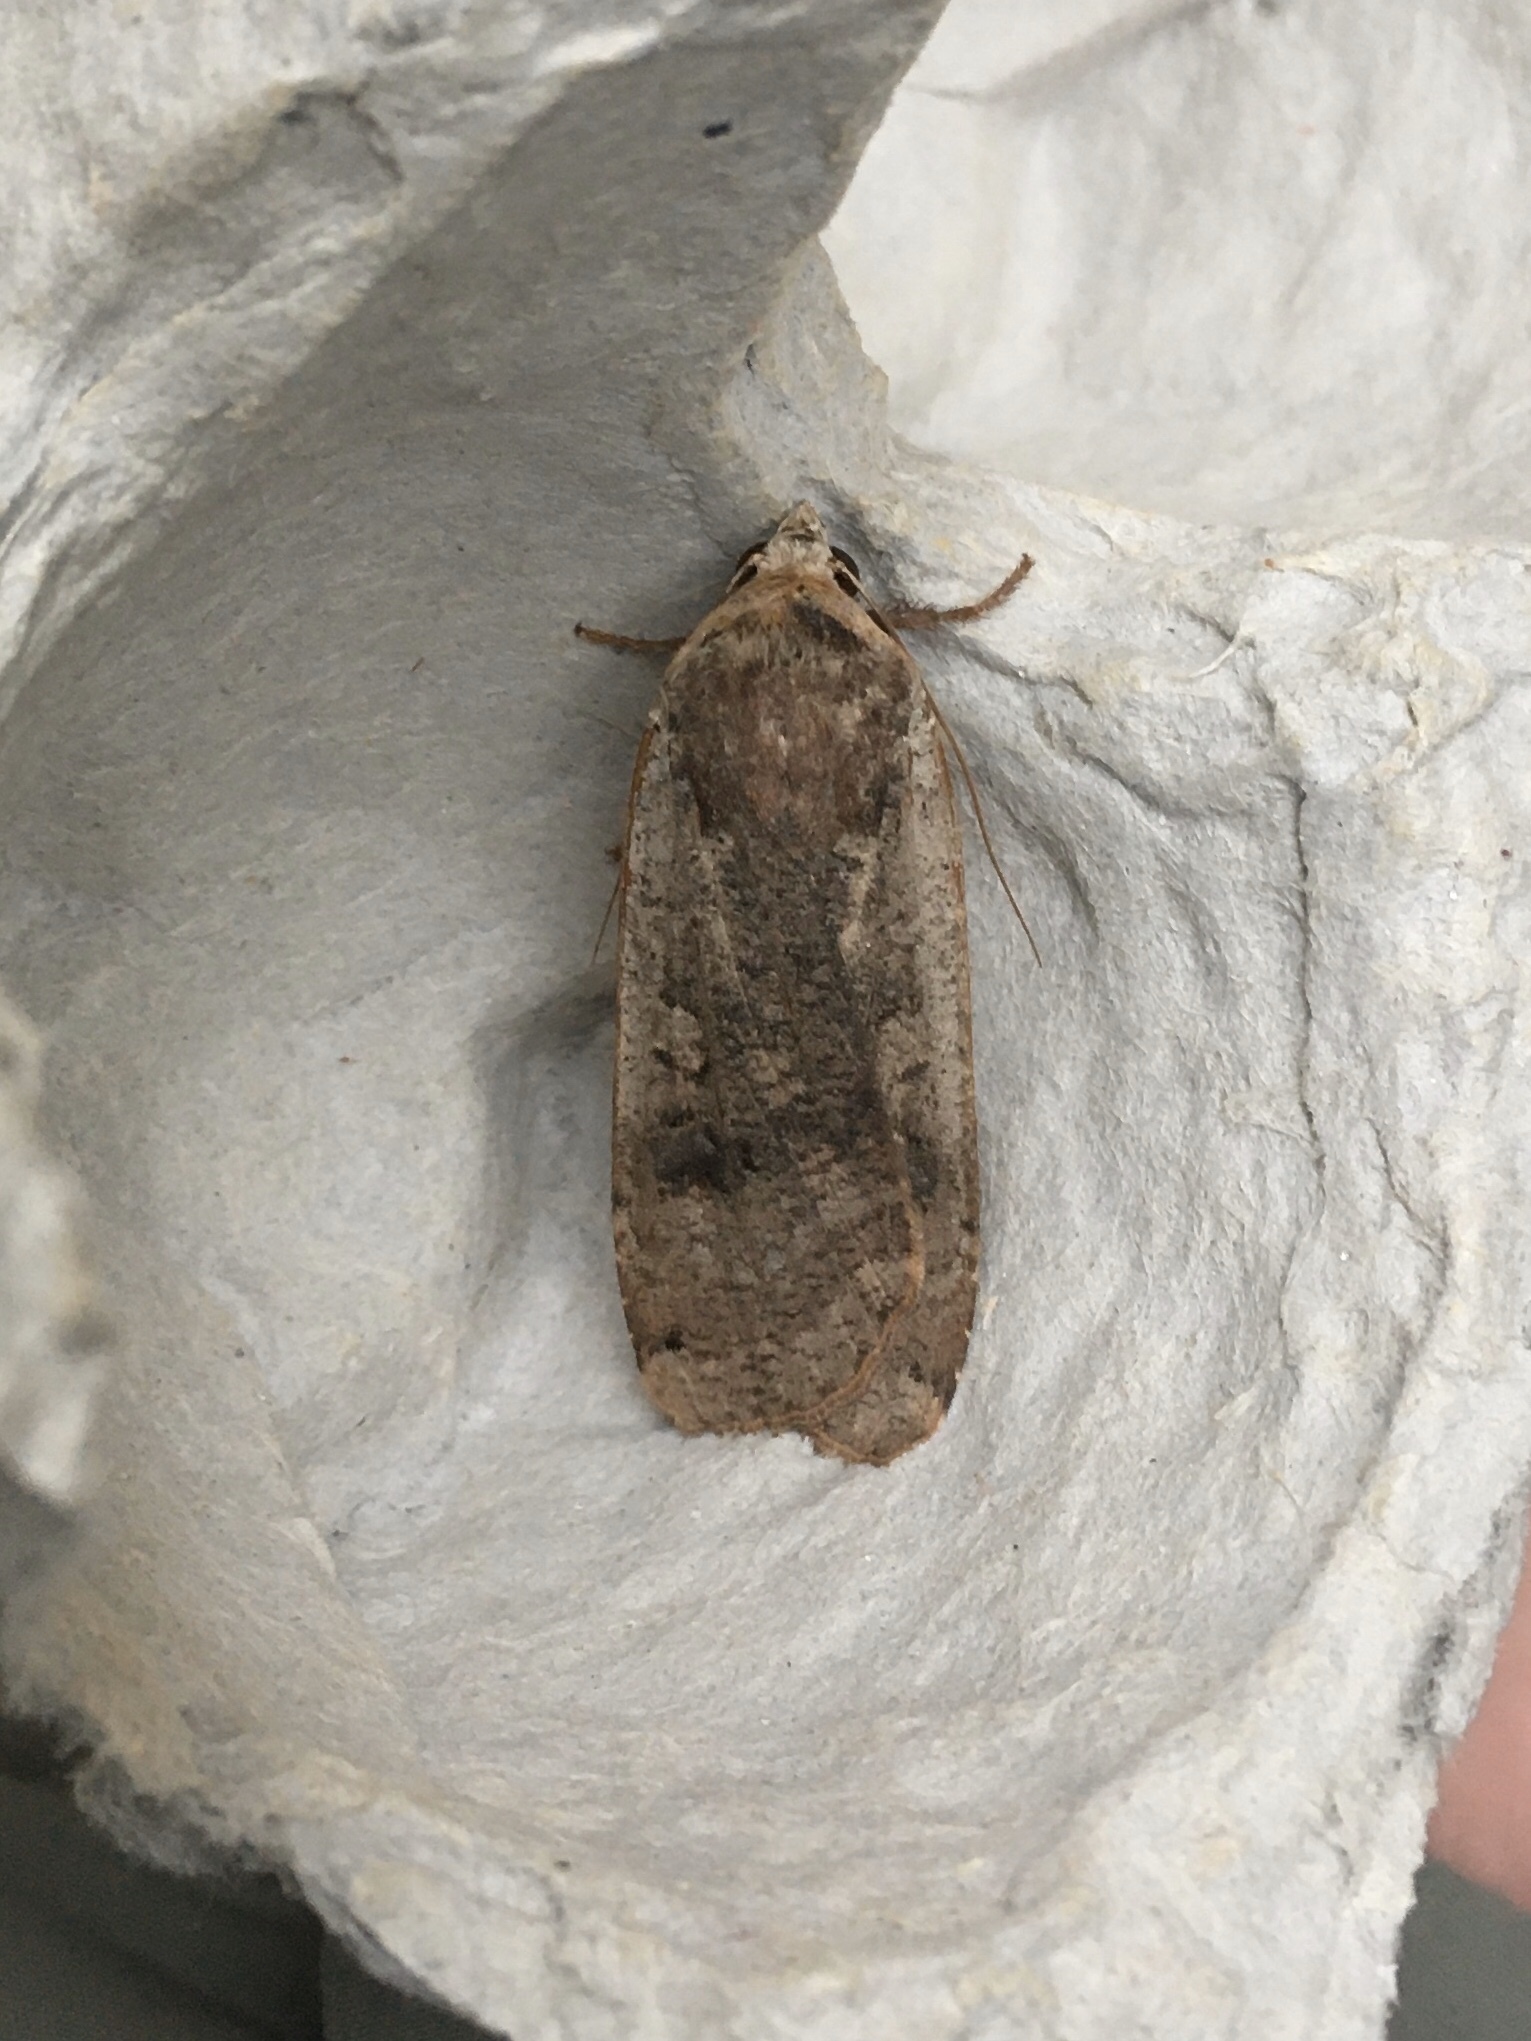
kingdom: Animalia
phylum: Arthropoda
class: Insecta
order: Lepidoptera
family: Noctuidae
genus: Noctua
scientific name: Noctua pronuba
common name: Large yellow underwing
